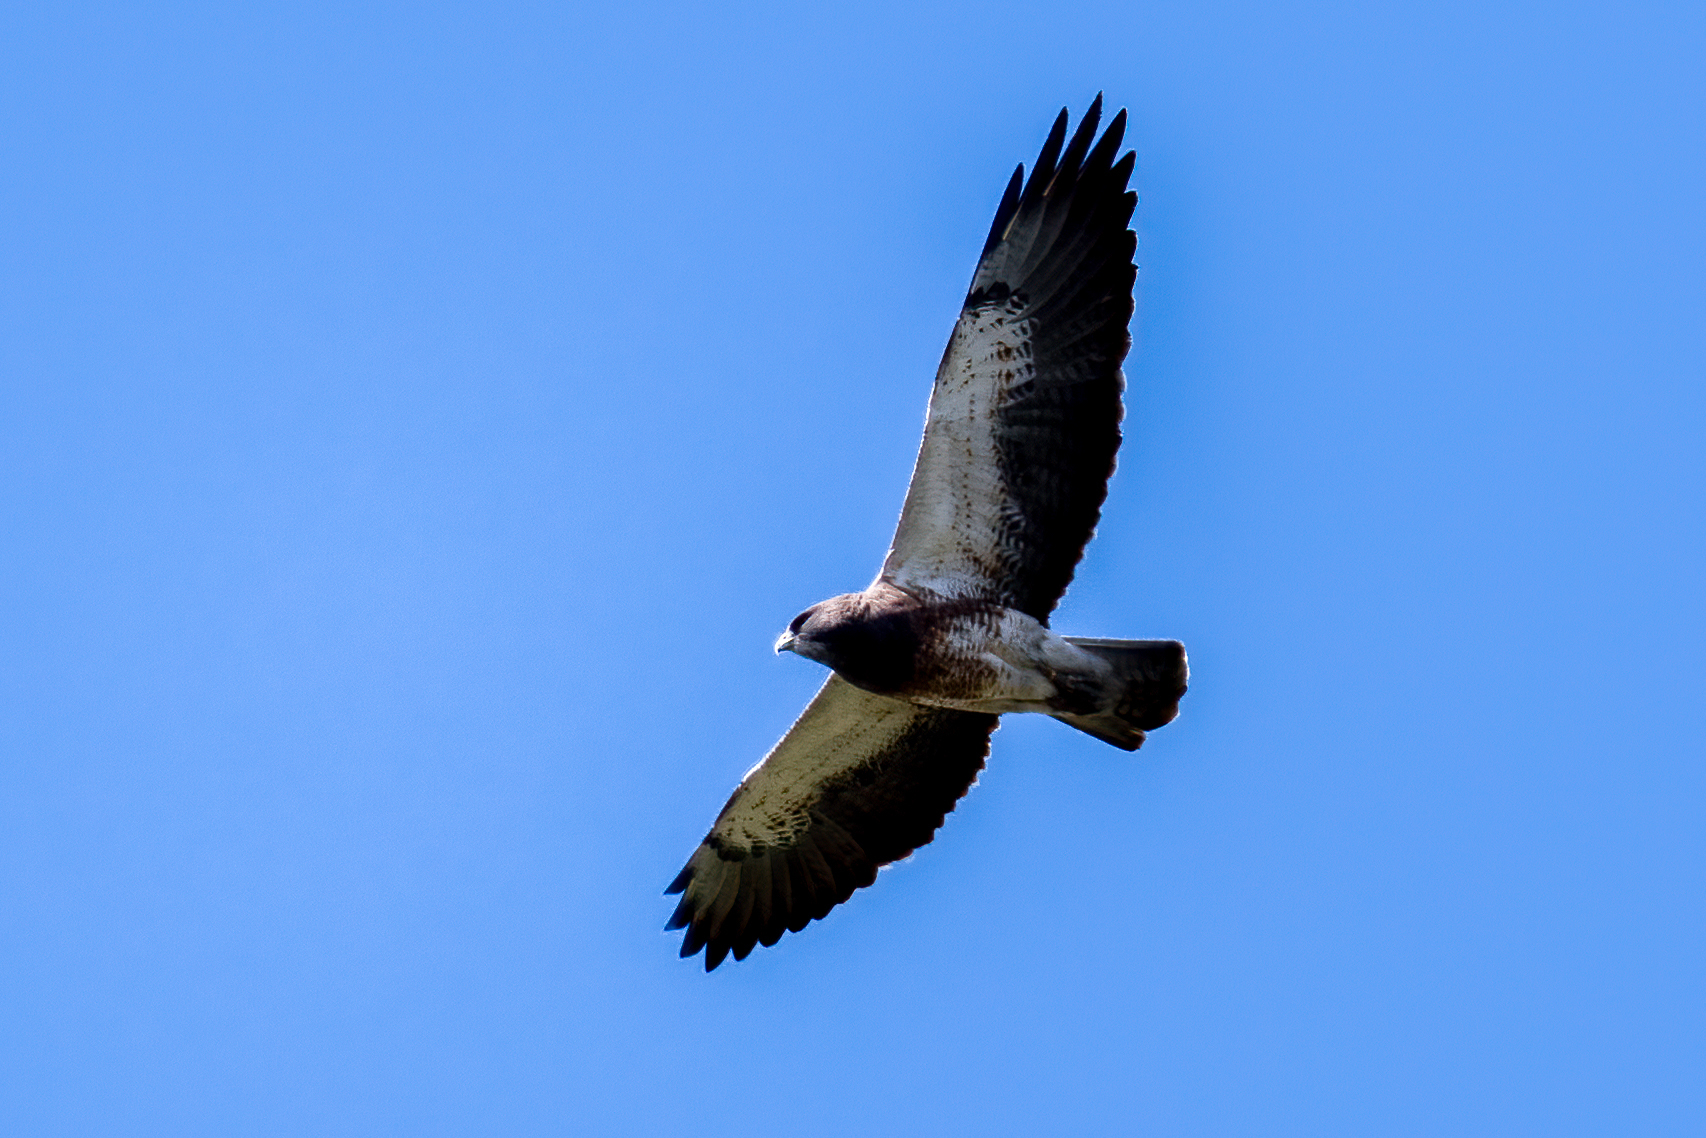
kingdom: Animalia
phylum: Chordata
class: Aves
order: Accipitriformes
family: Accipitridae
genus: Buteo
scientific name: Buteo swainsoni
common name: Swainson's hawk
